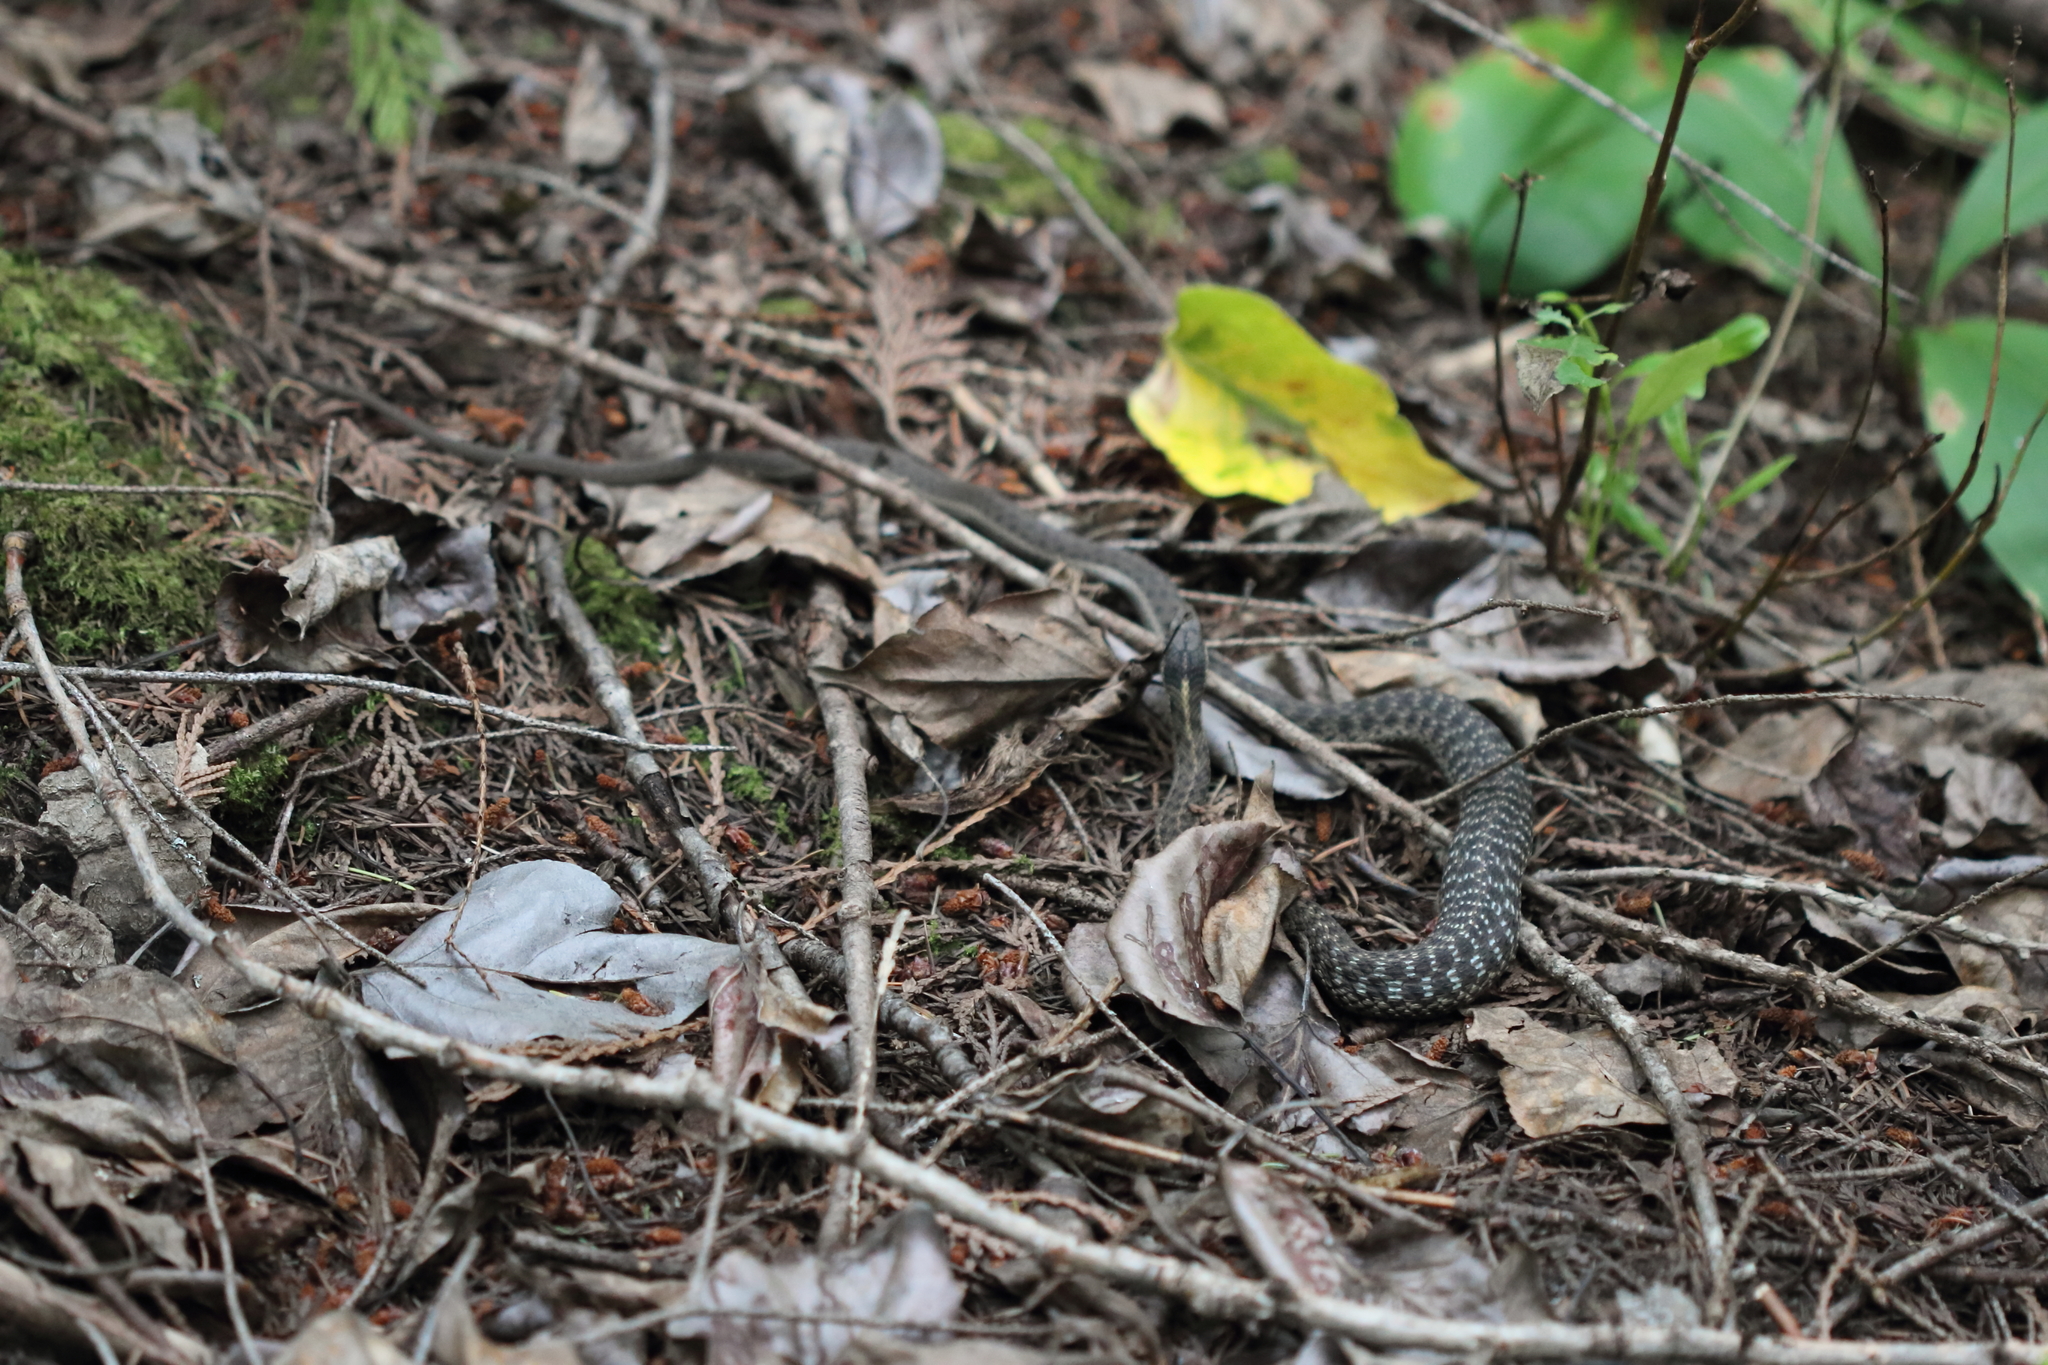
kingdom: Animalia
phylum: Chordata
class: Squamata
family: Colubridae
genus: Thamnophis
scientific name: Thamnophis elegans
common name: Western terrestrial garter snake
